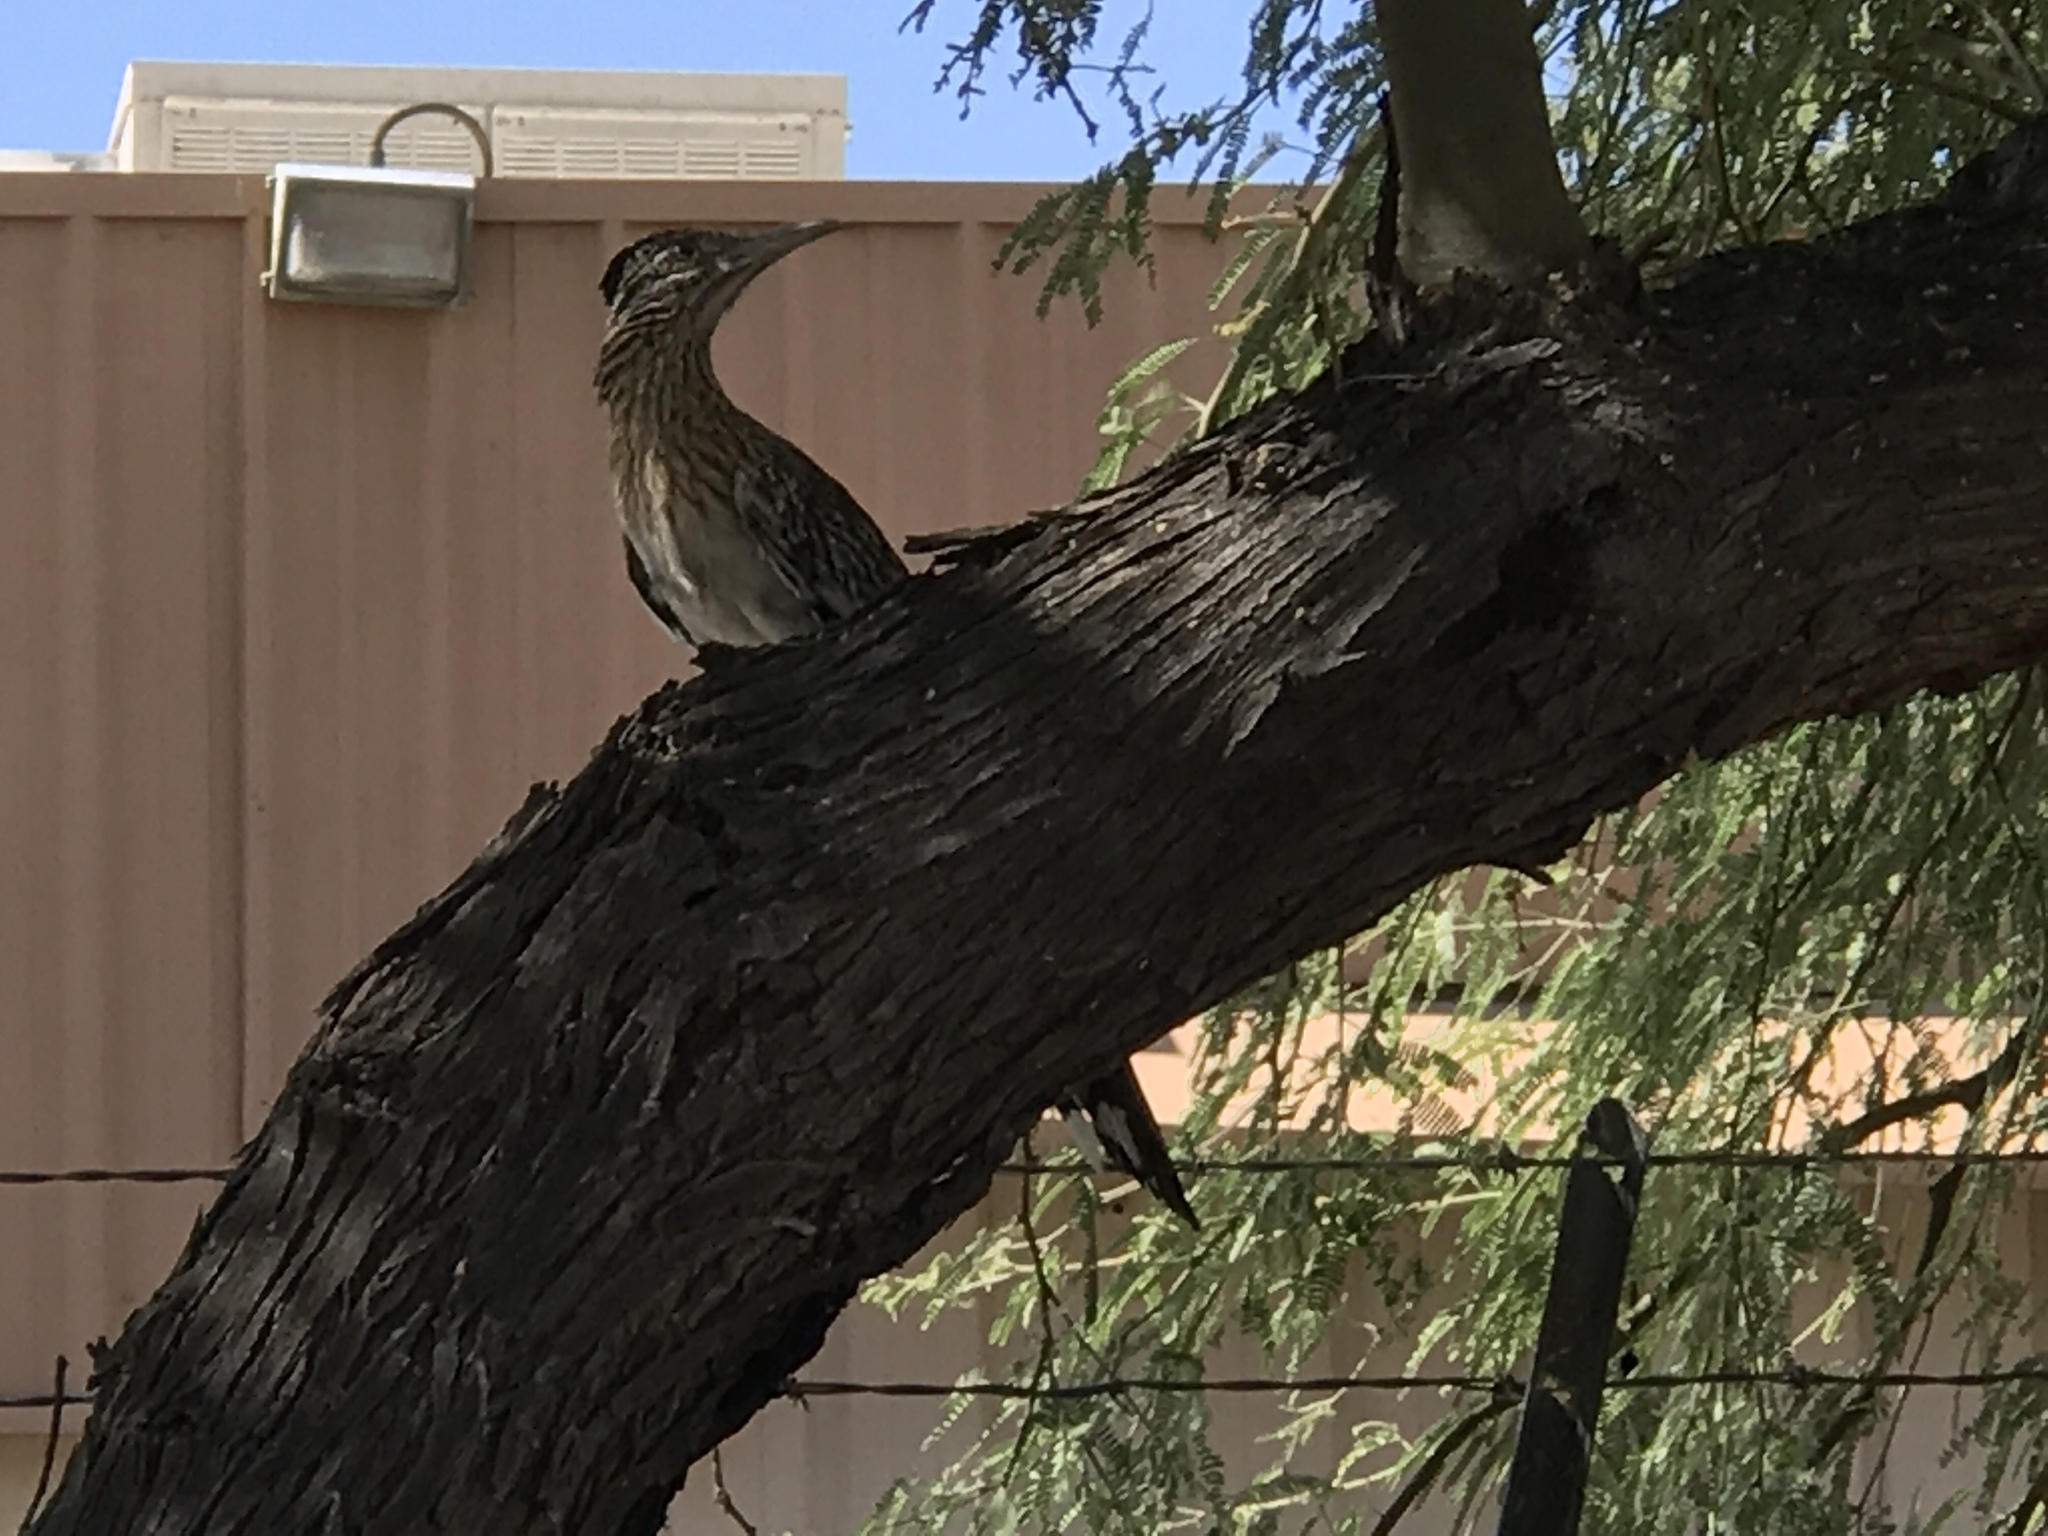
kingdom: Animalia
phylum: Chordata
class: Aves
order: Cuculiformes
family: Cuculidae
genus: Geococcyx
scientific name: Geococcyx californianus
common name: Greater roadrunner
